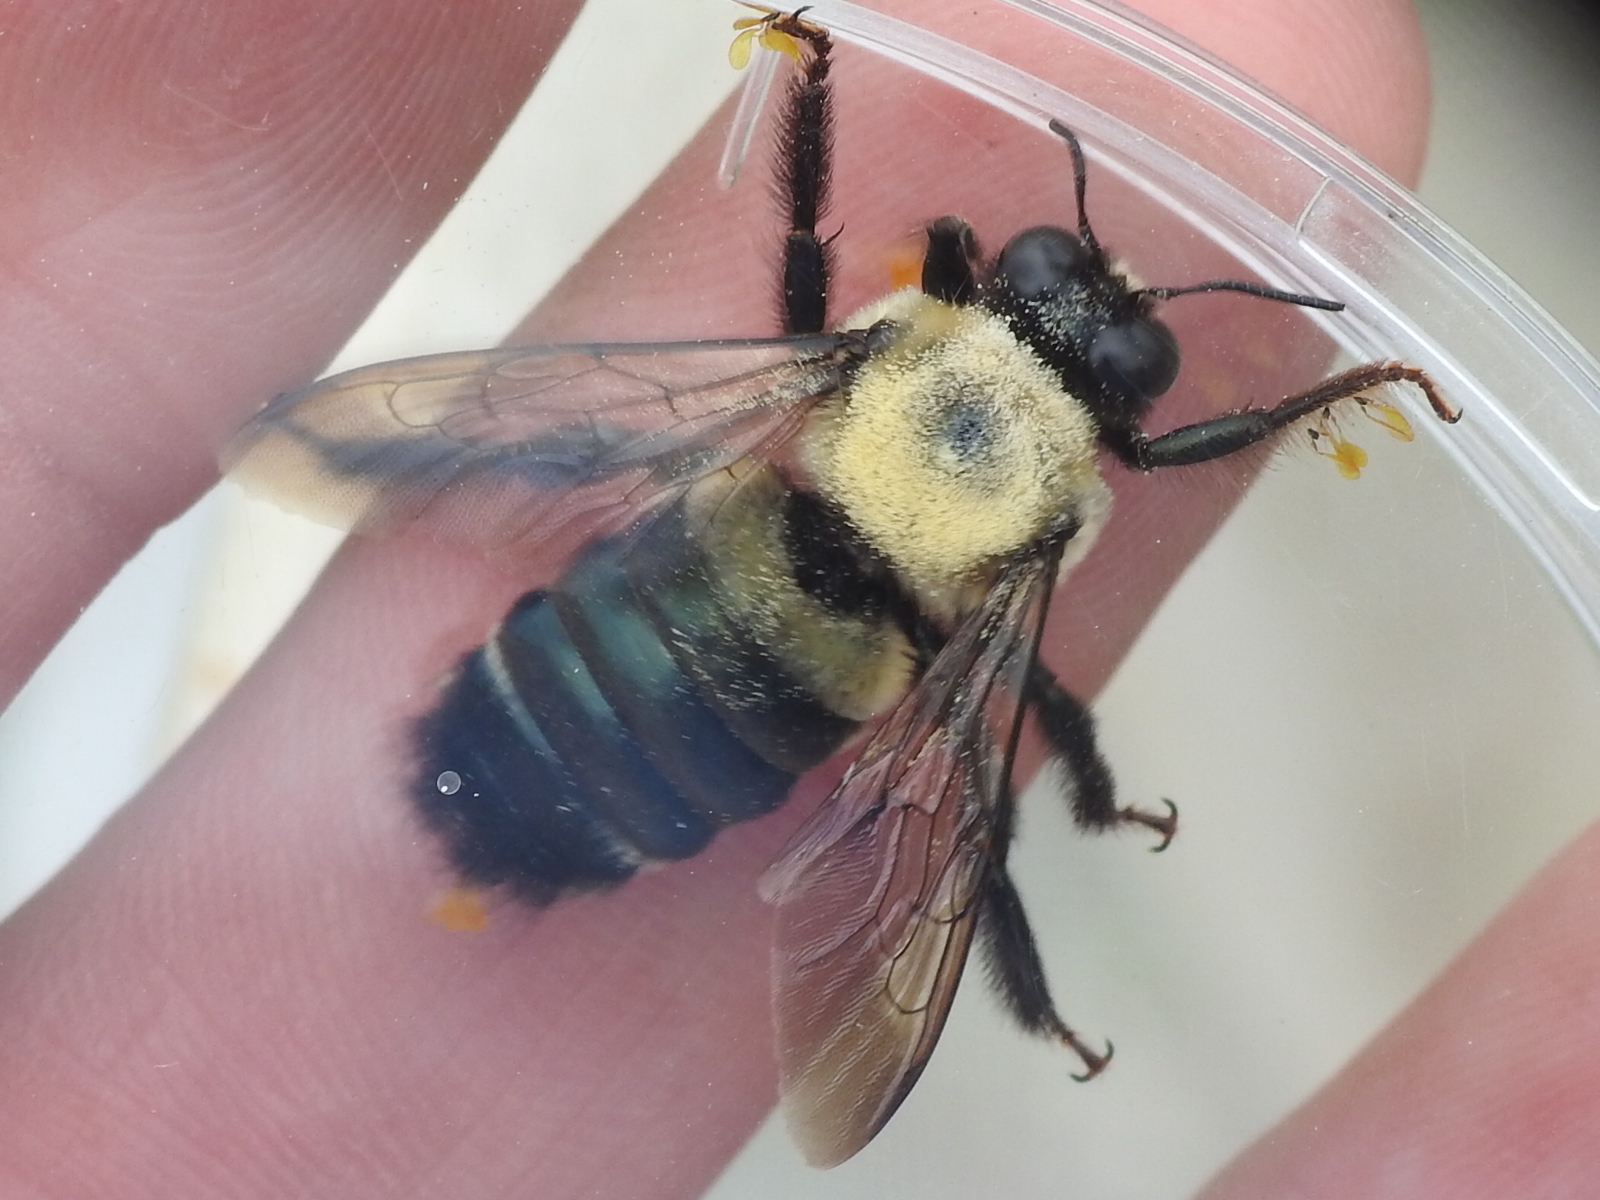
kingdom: Animalia
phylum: Arthropoda
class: Insecta
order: Hymenoptera
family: Apidae
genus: Xylocopa
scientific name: Xylocopa virginica
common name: Carpenter bee
